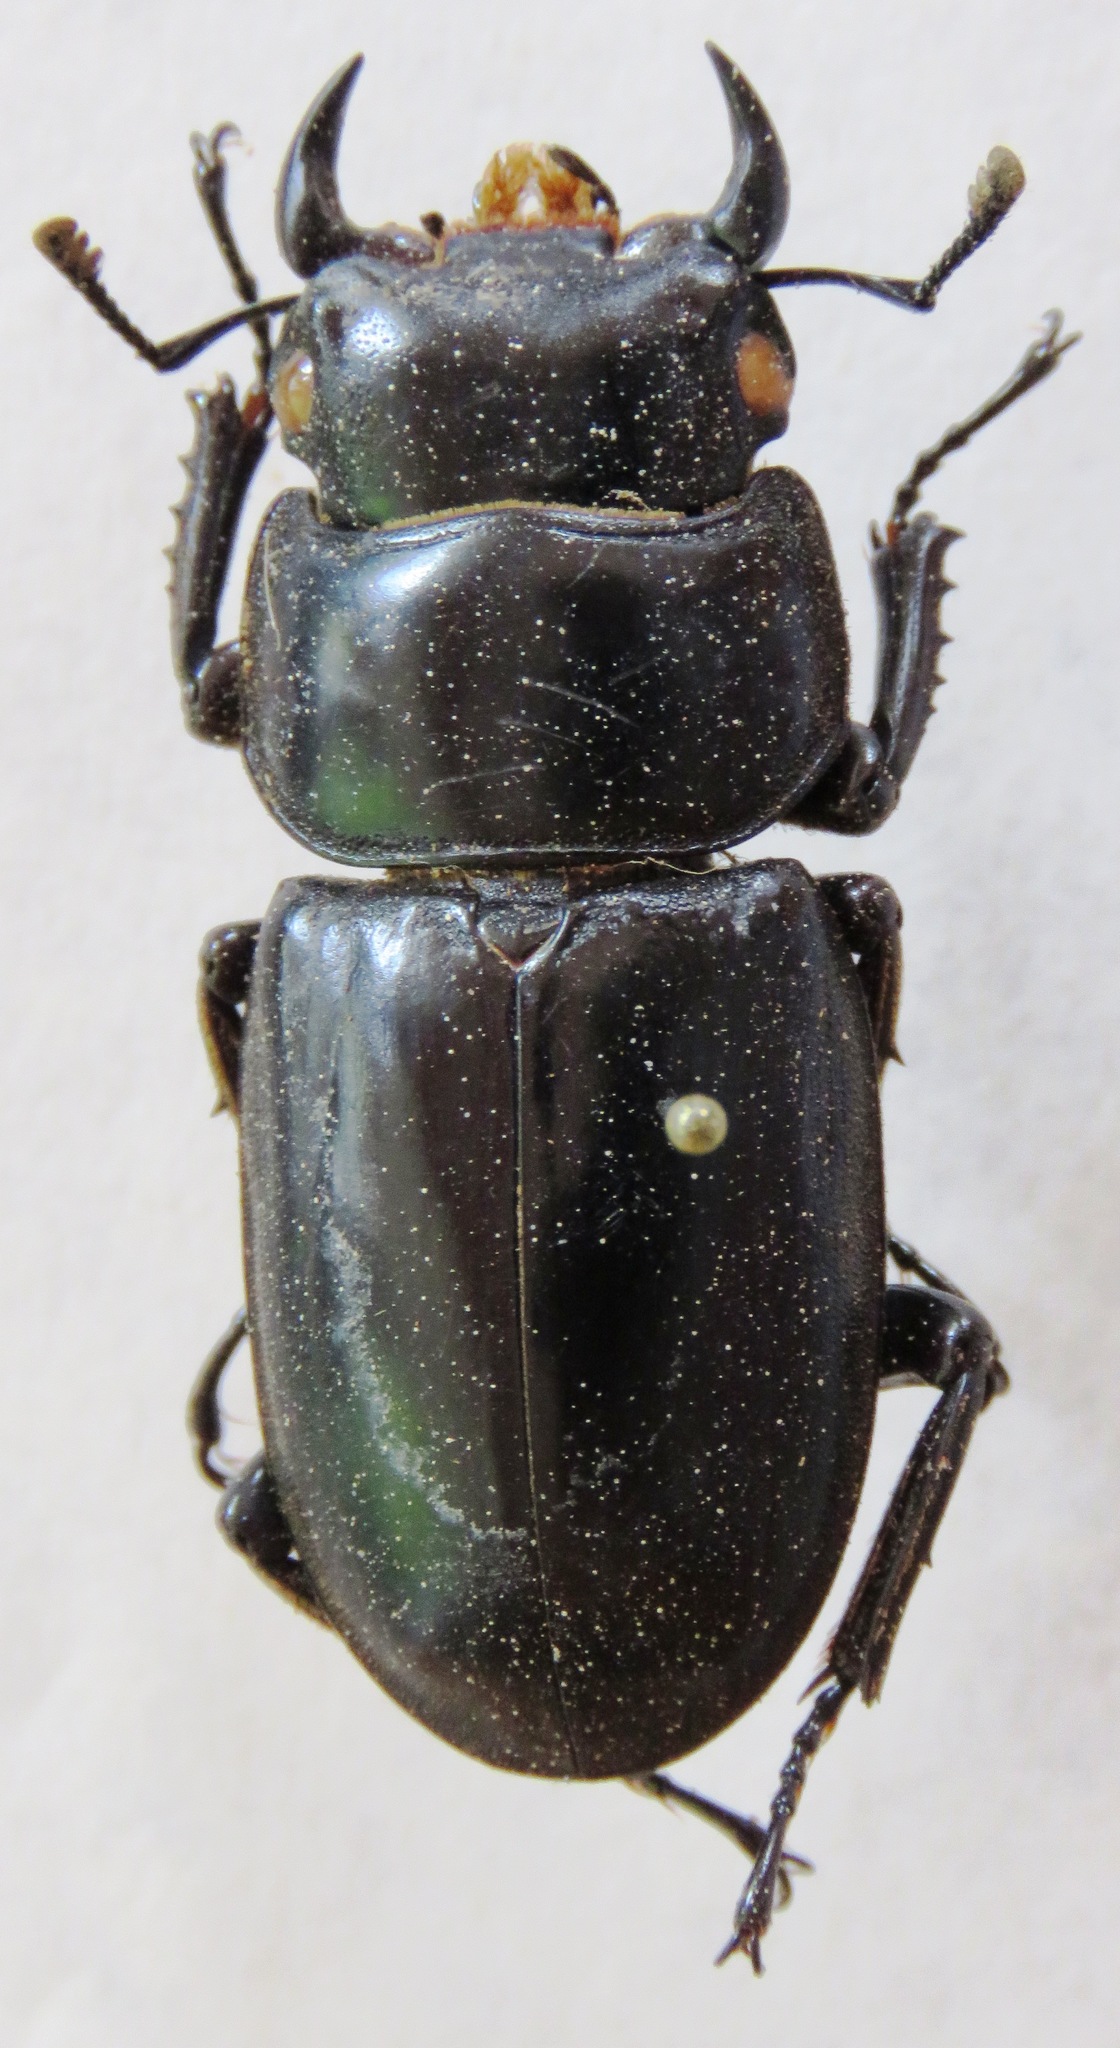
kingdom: Animalia
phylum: Arthropoda
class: Insecta
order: Coleoptera
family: Lucanidae
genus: Dorcus
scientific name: Dorcus antaeus
